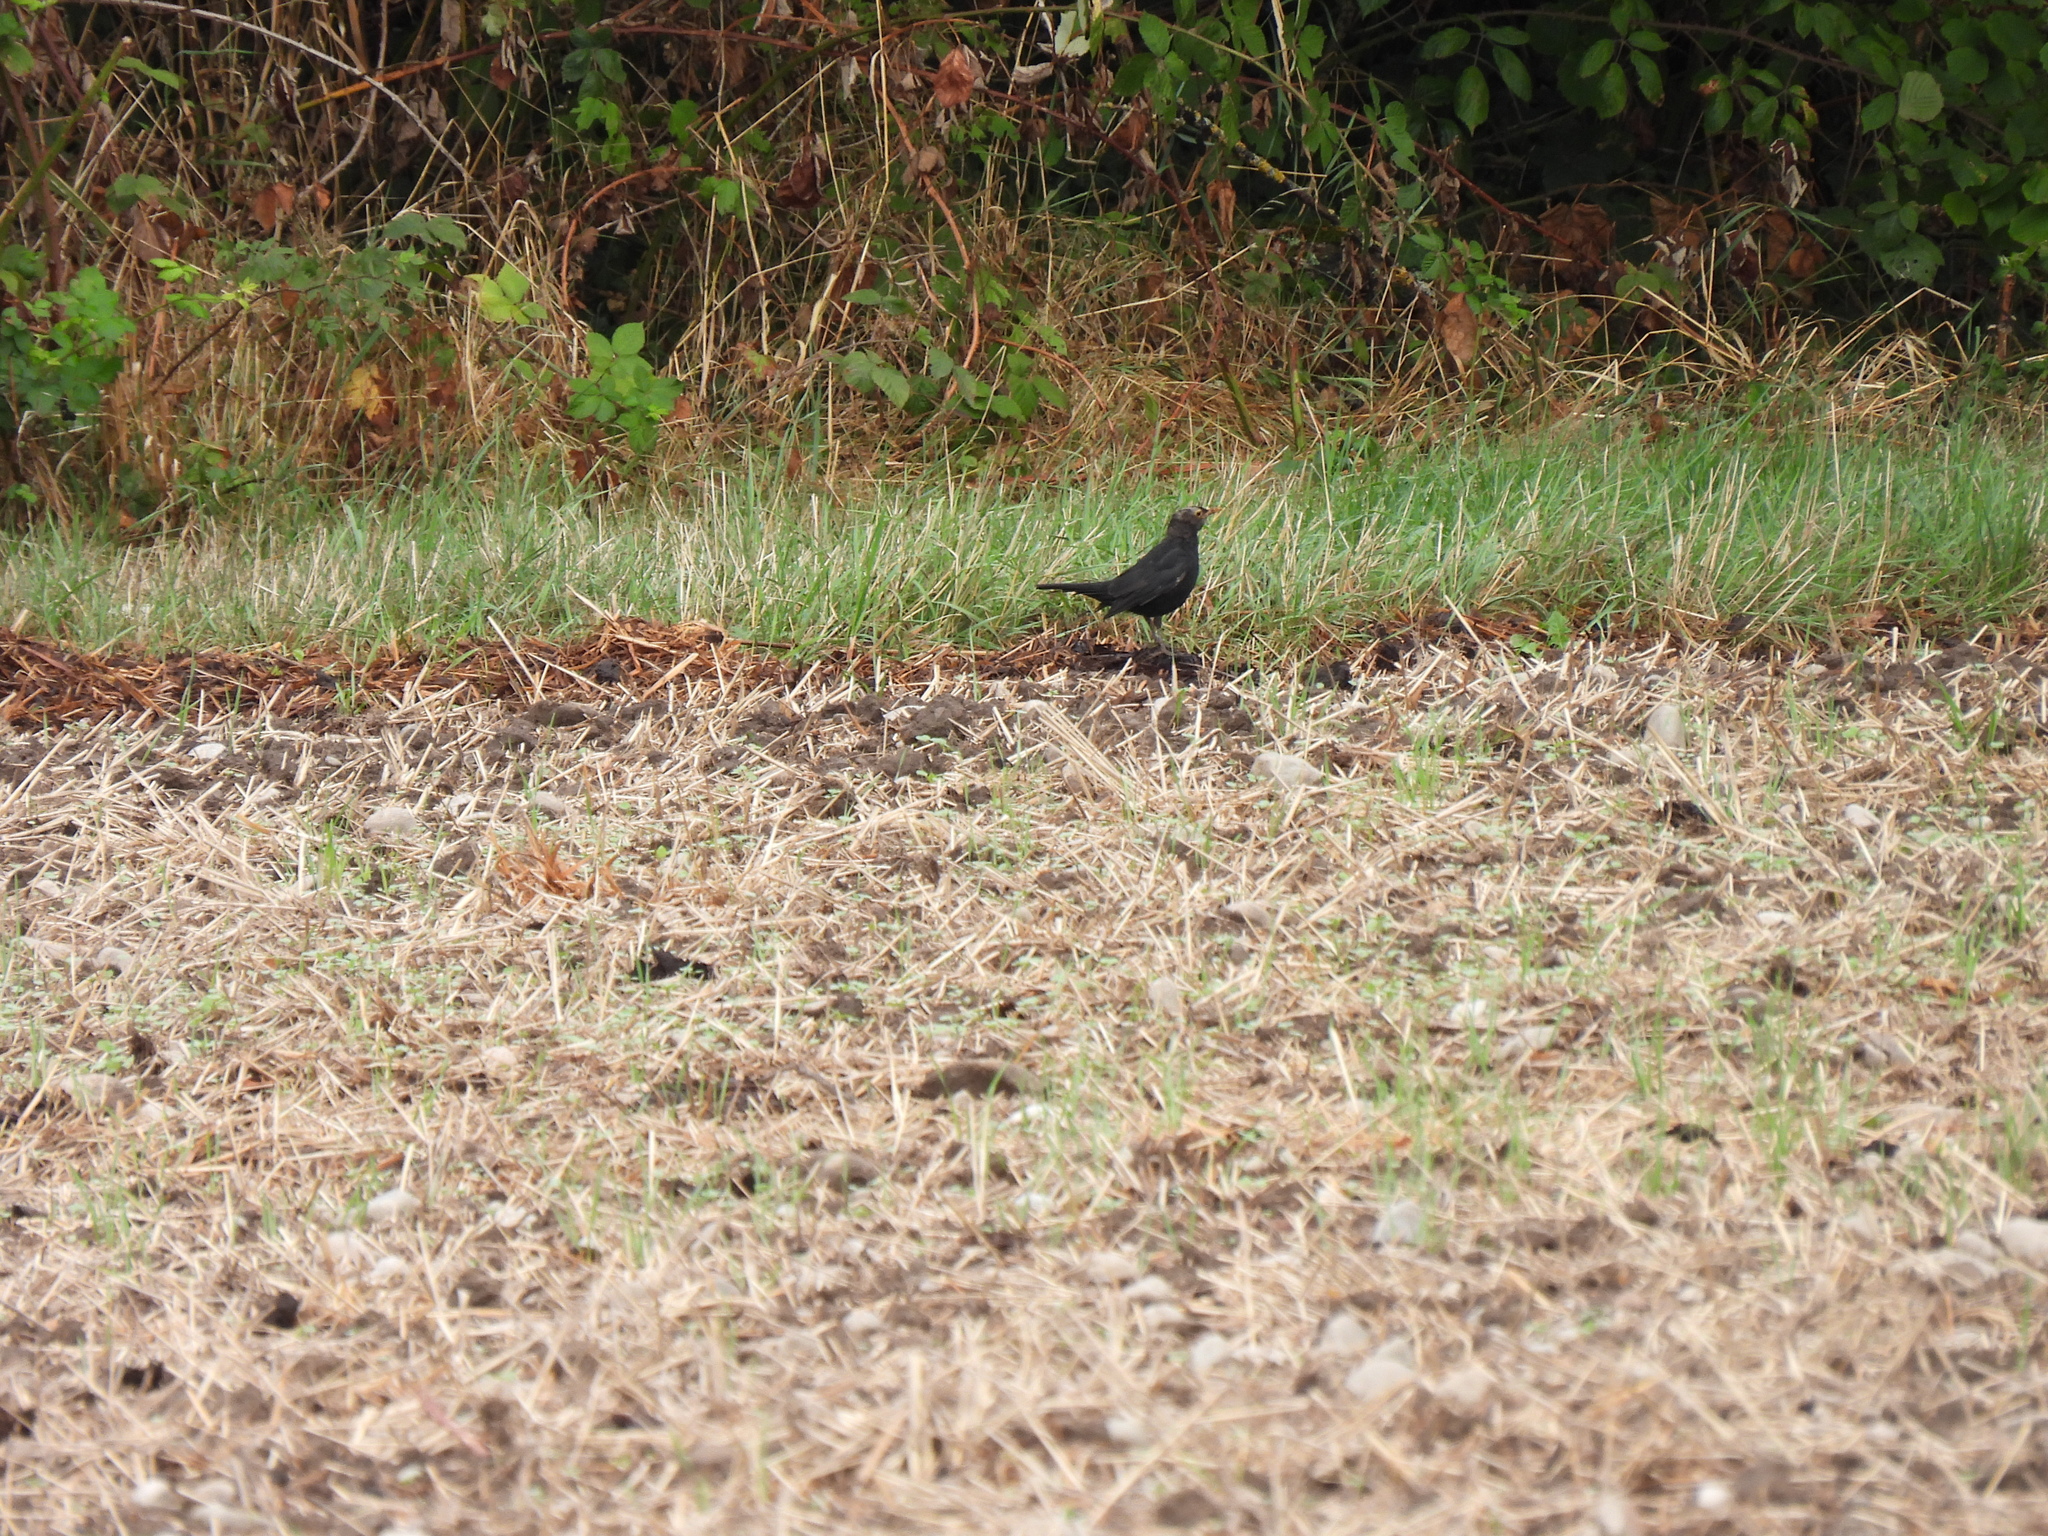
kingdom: Animalia
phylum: Chordata
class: Aves
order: Passeriformes
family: Turdidae
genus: Turdus
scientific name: Turdus merula
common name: Common blackbird
